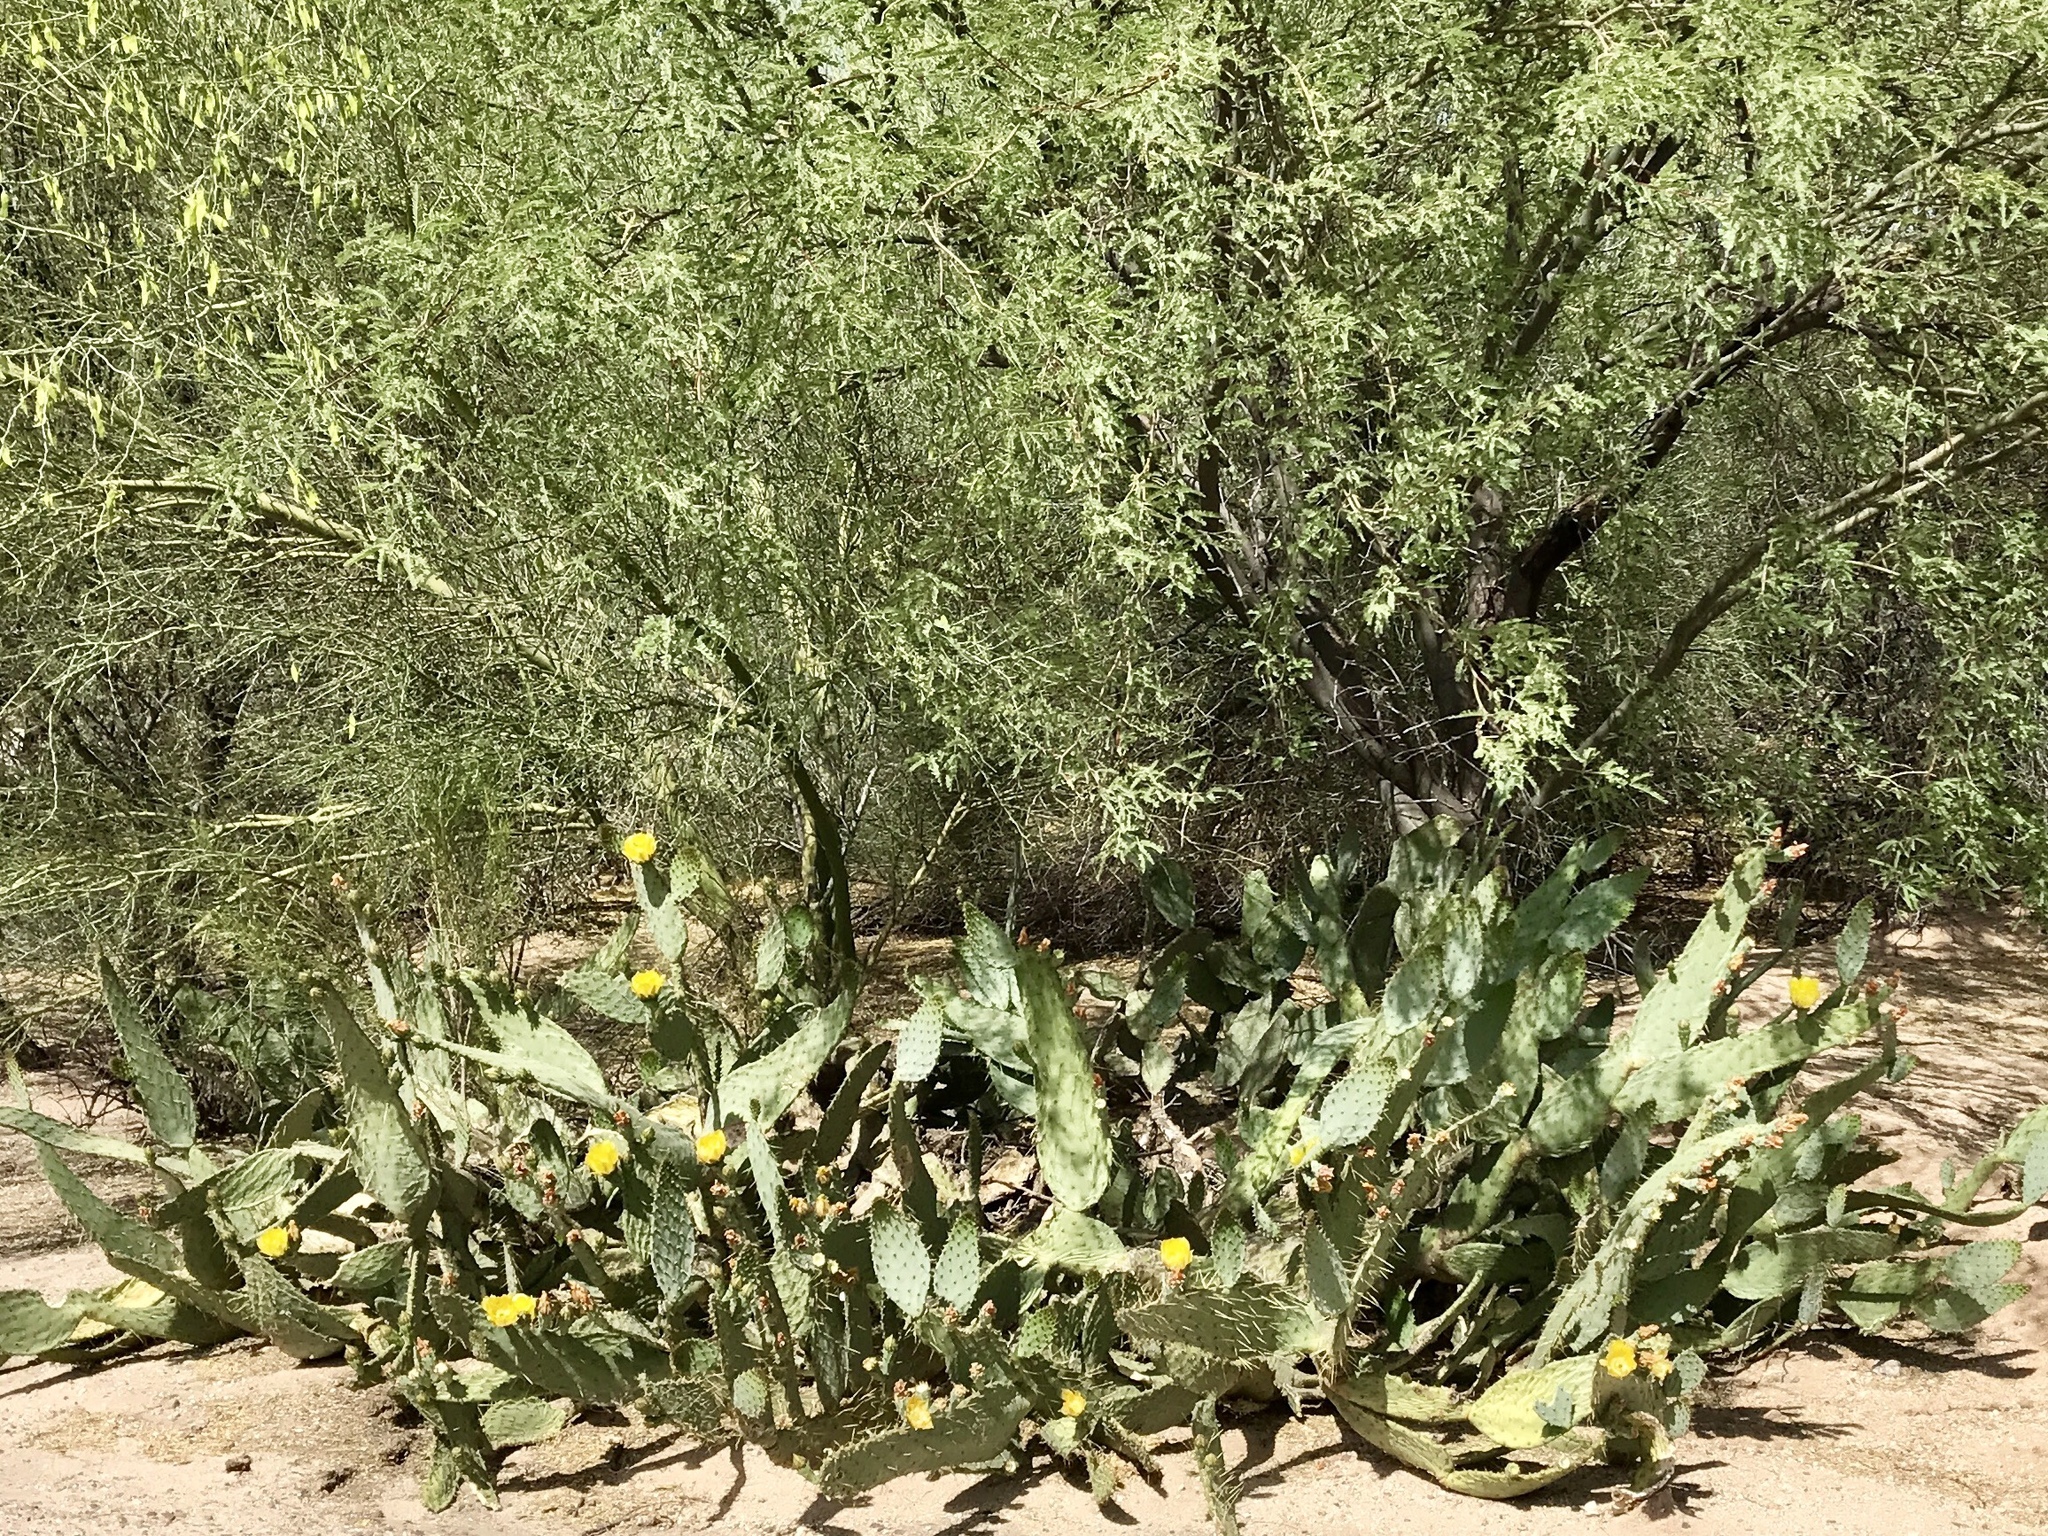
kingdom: Plantae
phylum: Tracheophyta
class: Magnoliopsida
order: Caryophyllales
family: Cactaceae
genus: Opuntia
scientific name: Opuntia engelmannii
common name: Cactus-apple
